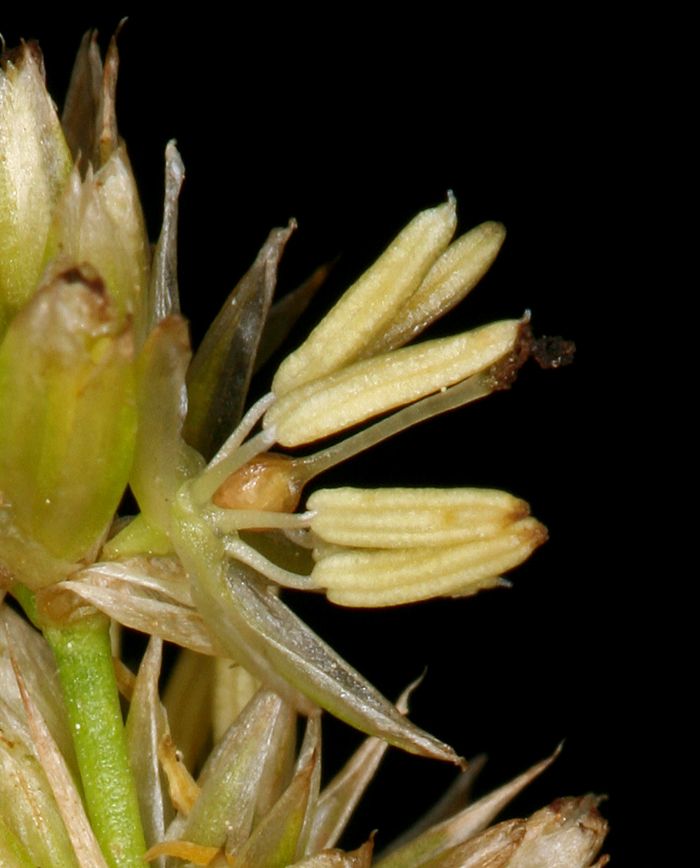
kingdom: Plantae
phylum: Tracheophyta
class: Liliopsida
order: Poales
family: Juncaceae
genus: Juncus
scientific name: Juncus chlorocephalus
